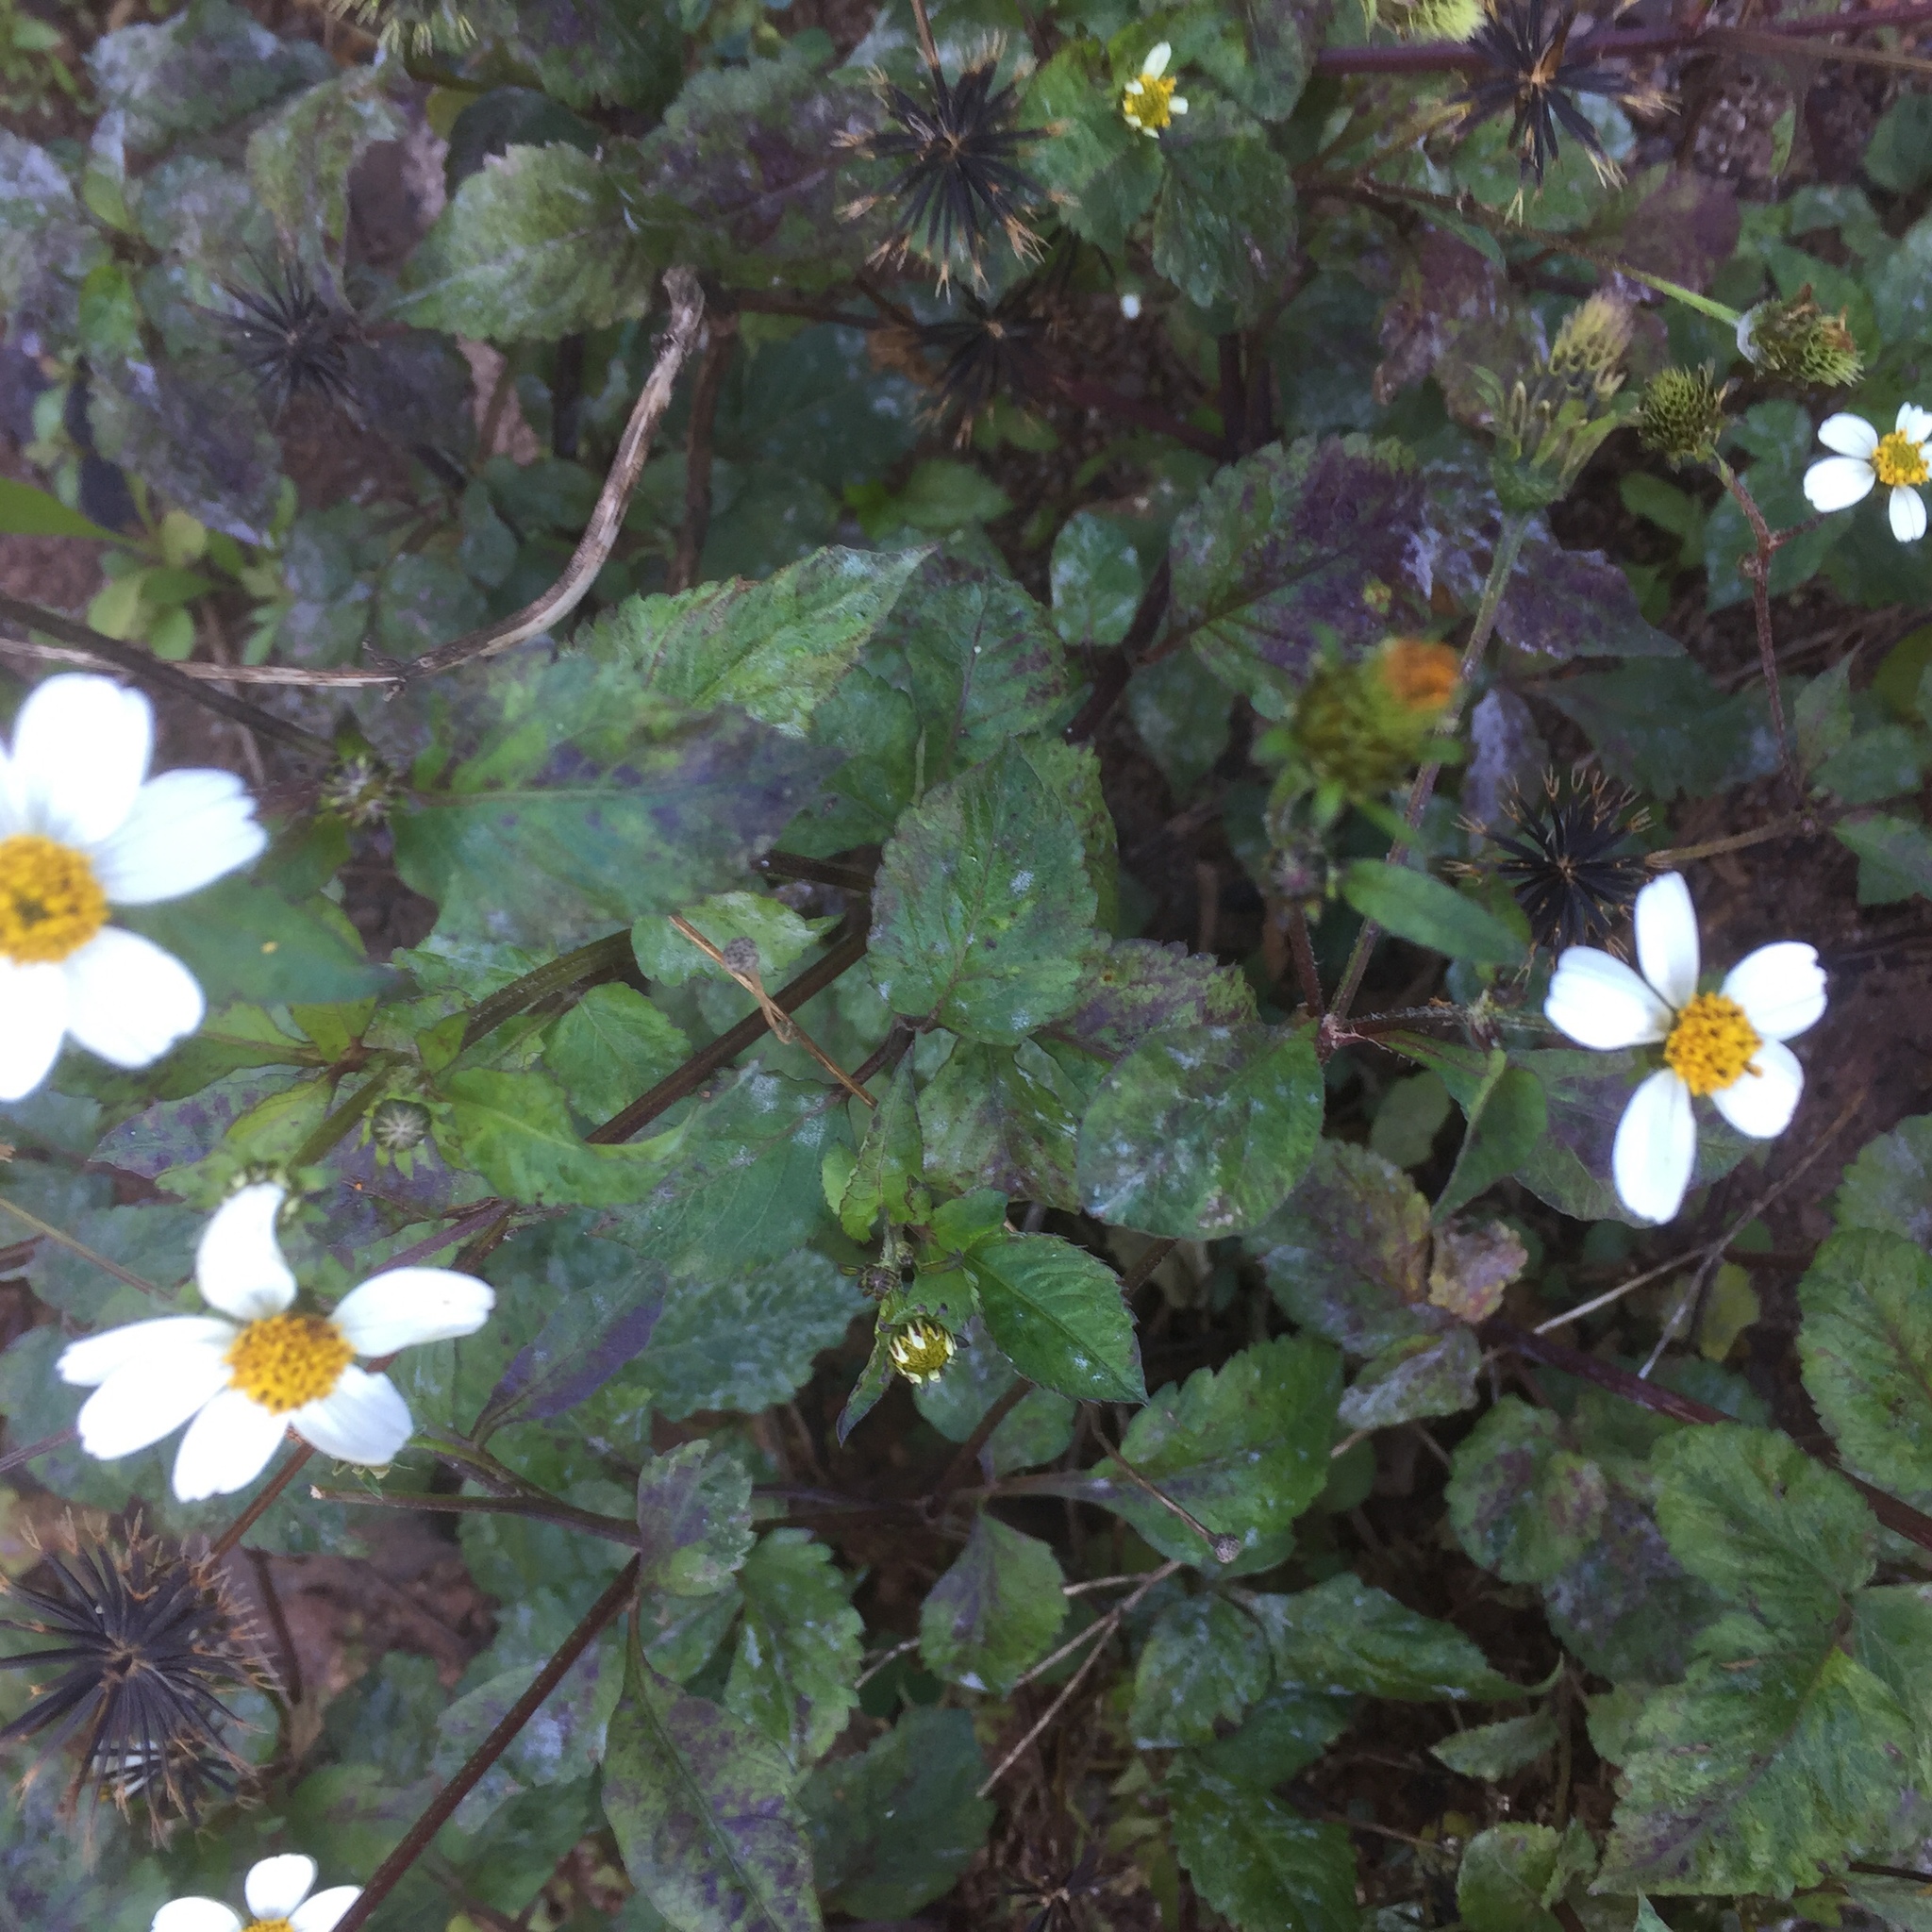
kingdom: Plantae
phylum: Tracheophyta
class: Magnoliopsida
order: Asterales
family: Asteraceae
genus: Bidens
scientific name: Bidens pilosa
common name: Black-jack
